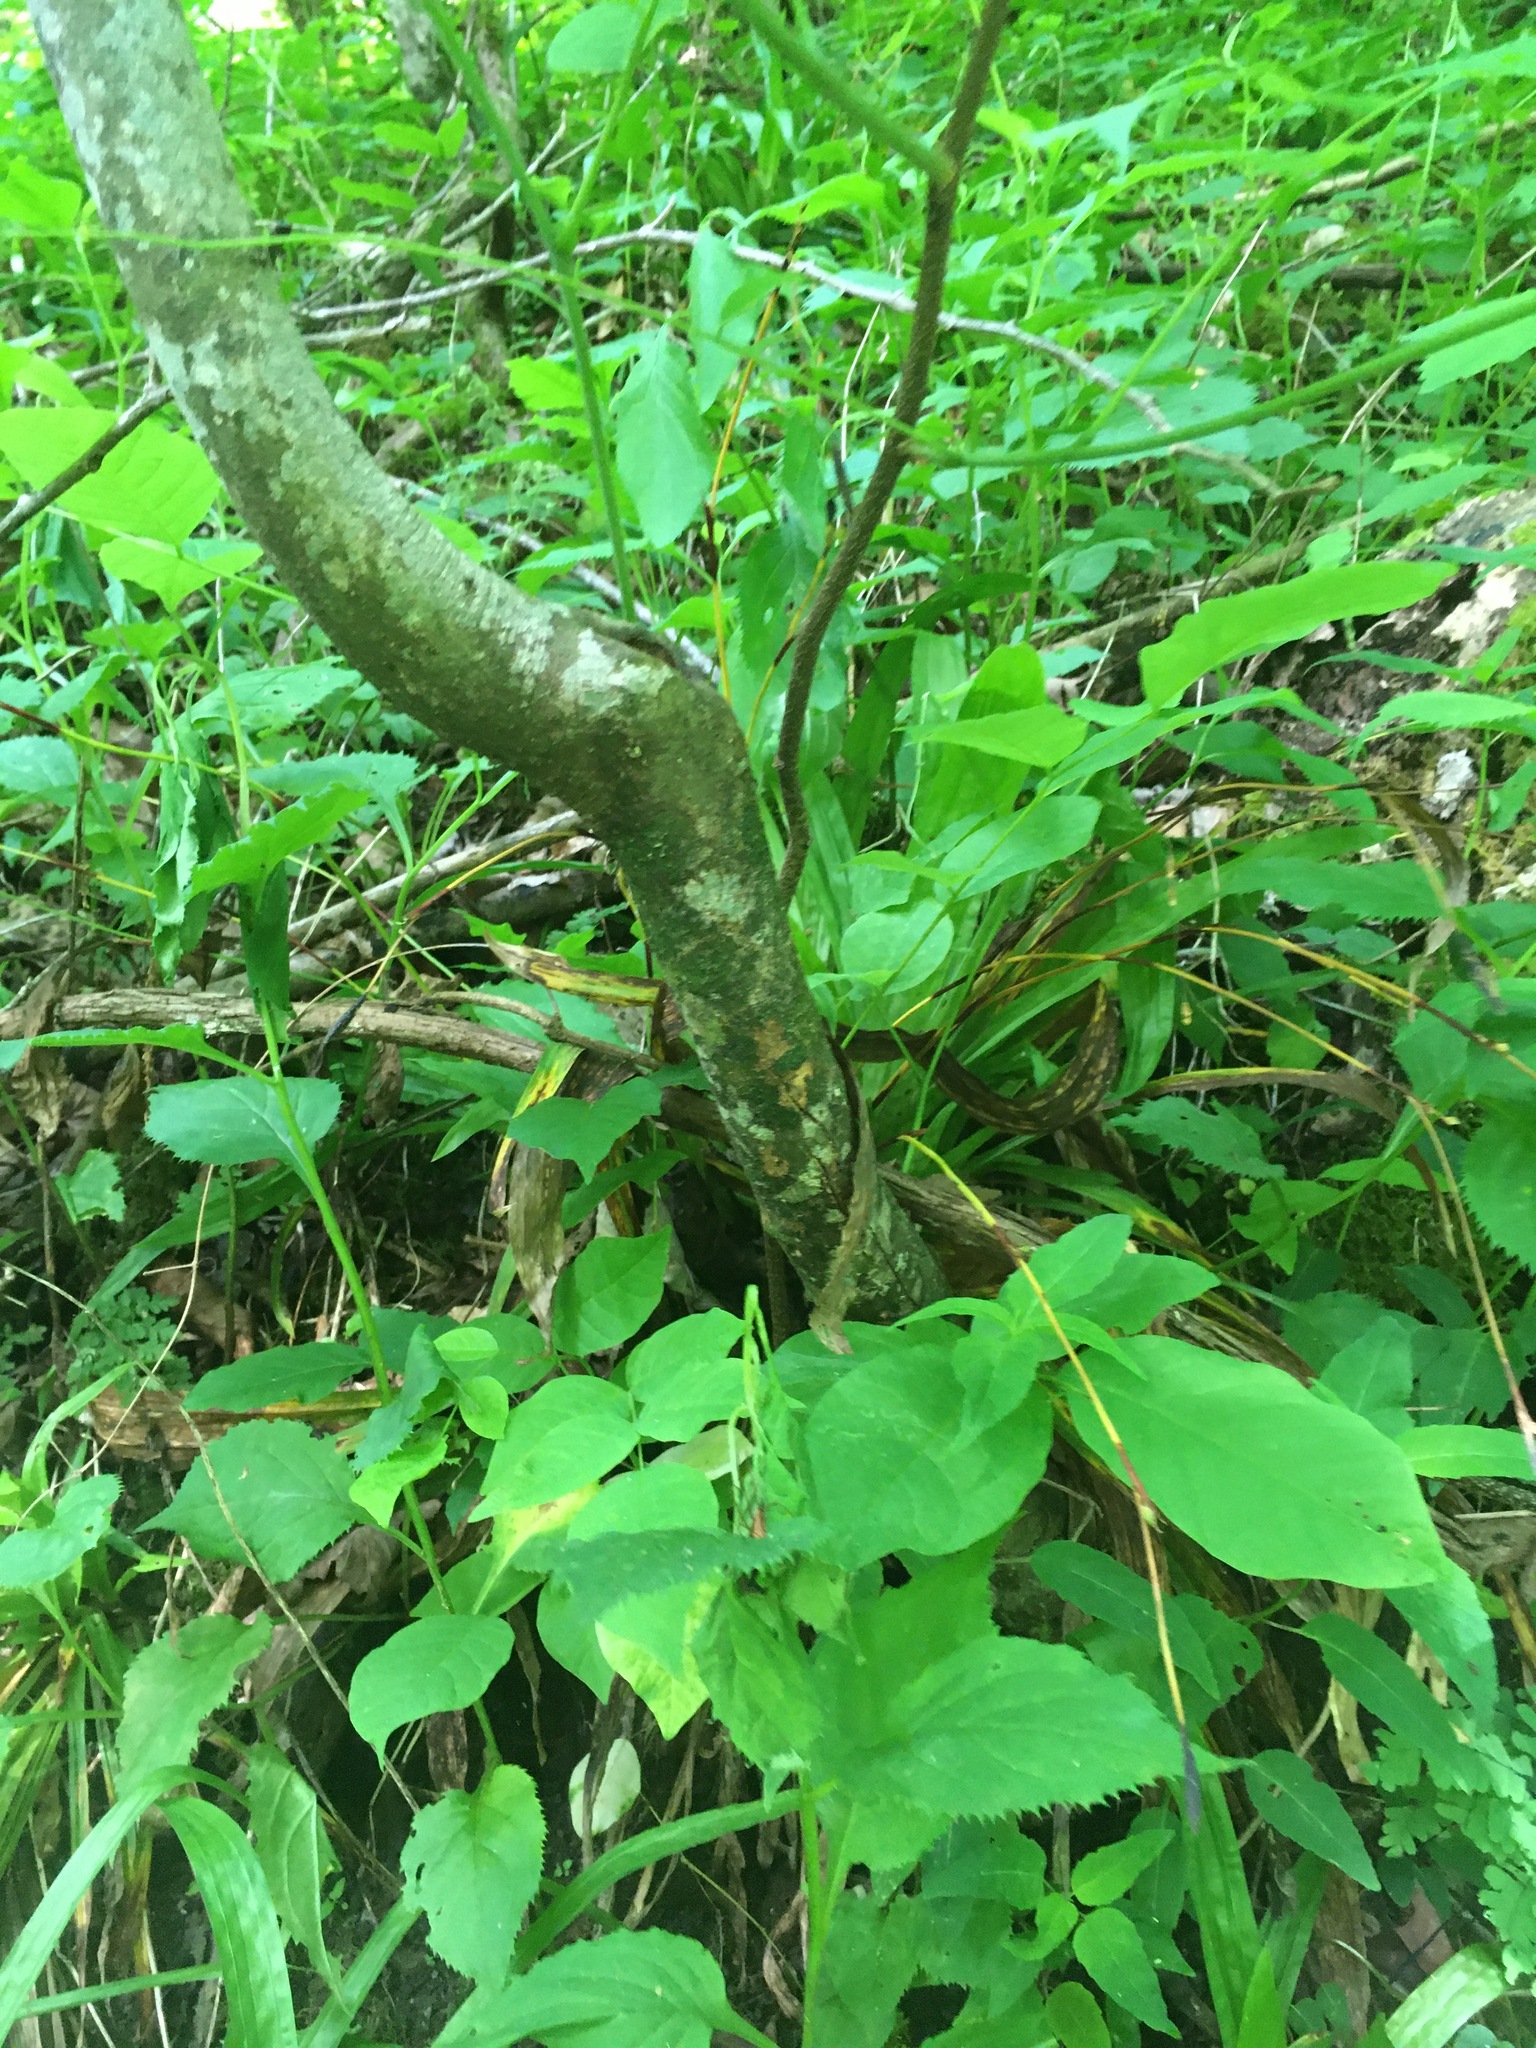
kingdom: Plantae
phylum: Tracheophyta
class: Magnoliopsida
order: Fabales
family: Fabaceae
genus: Cladrastis
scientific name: Cladrastis kentukea
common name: Kentucky yellow-wood
